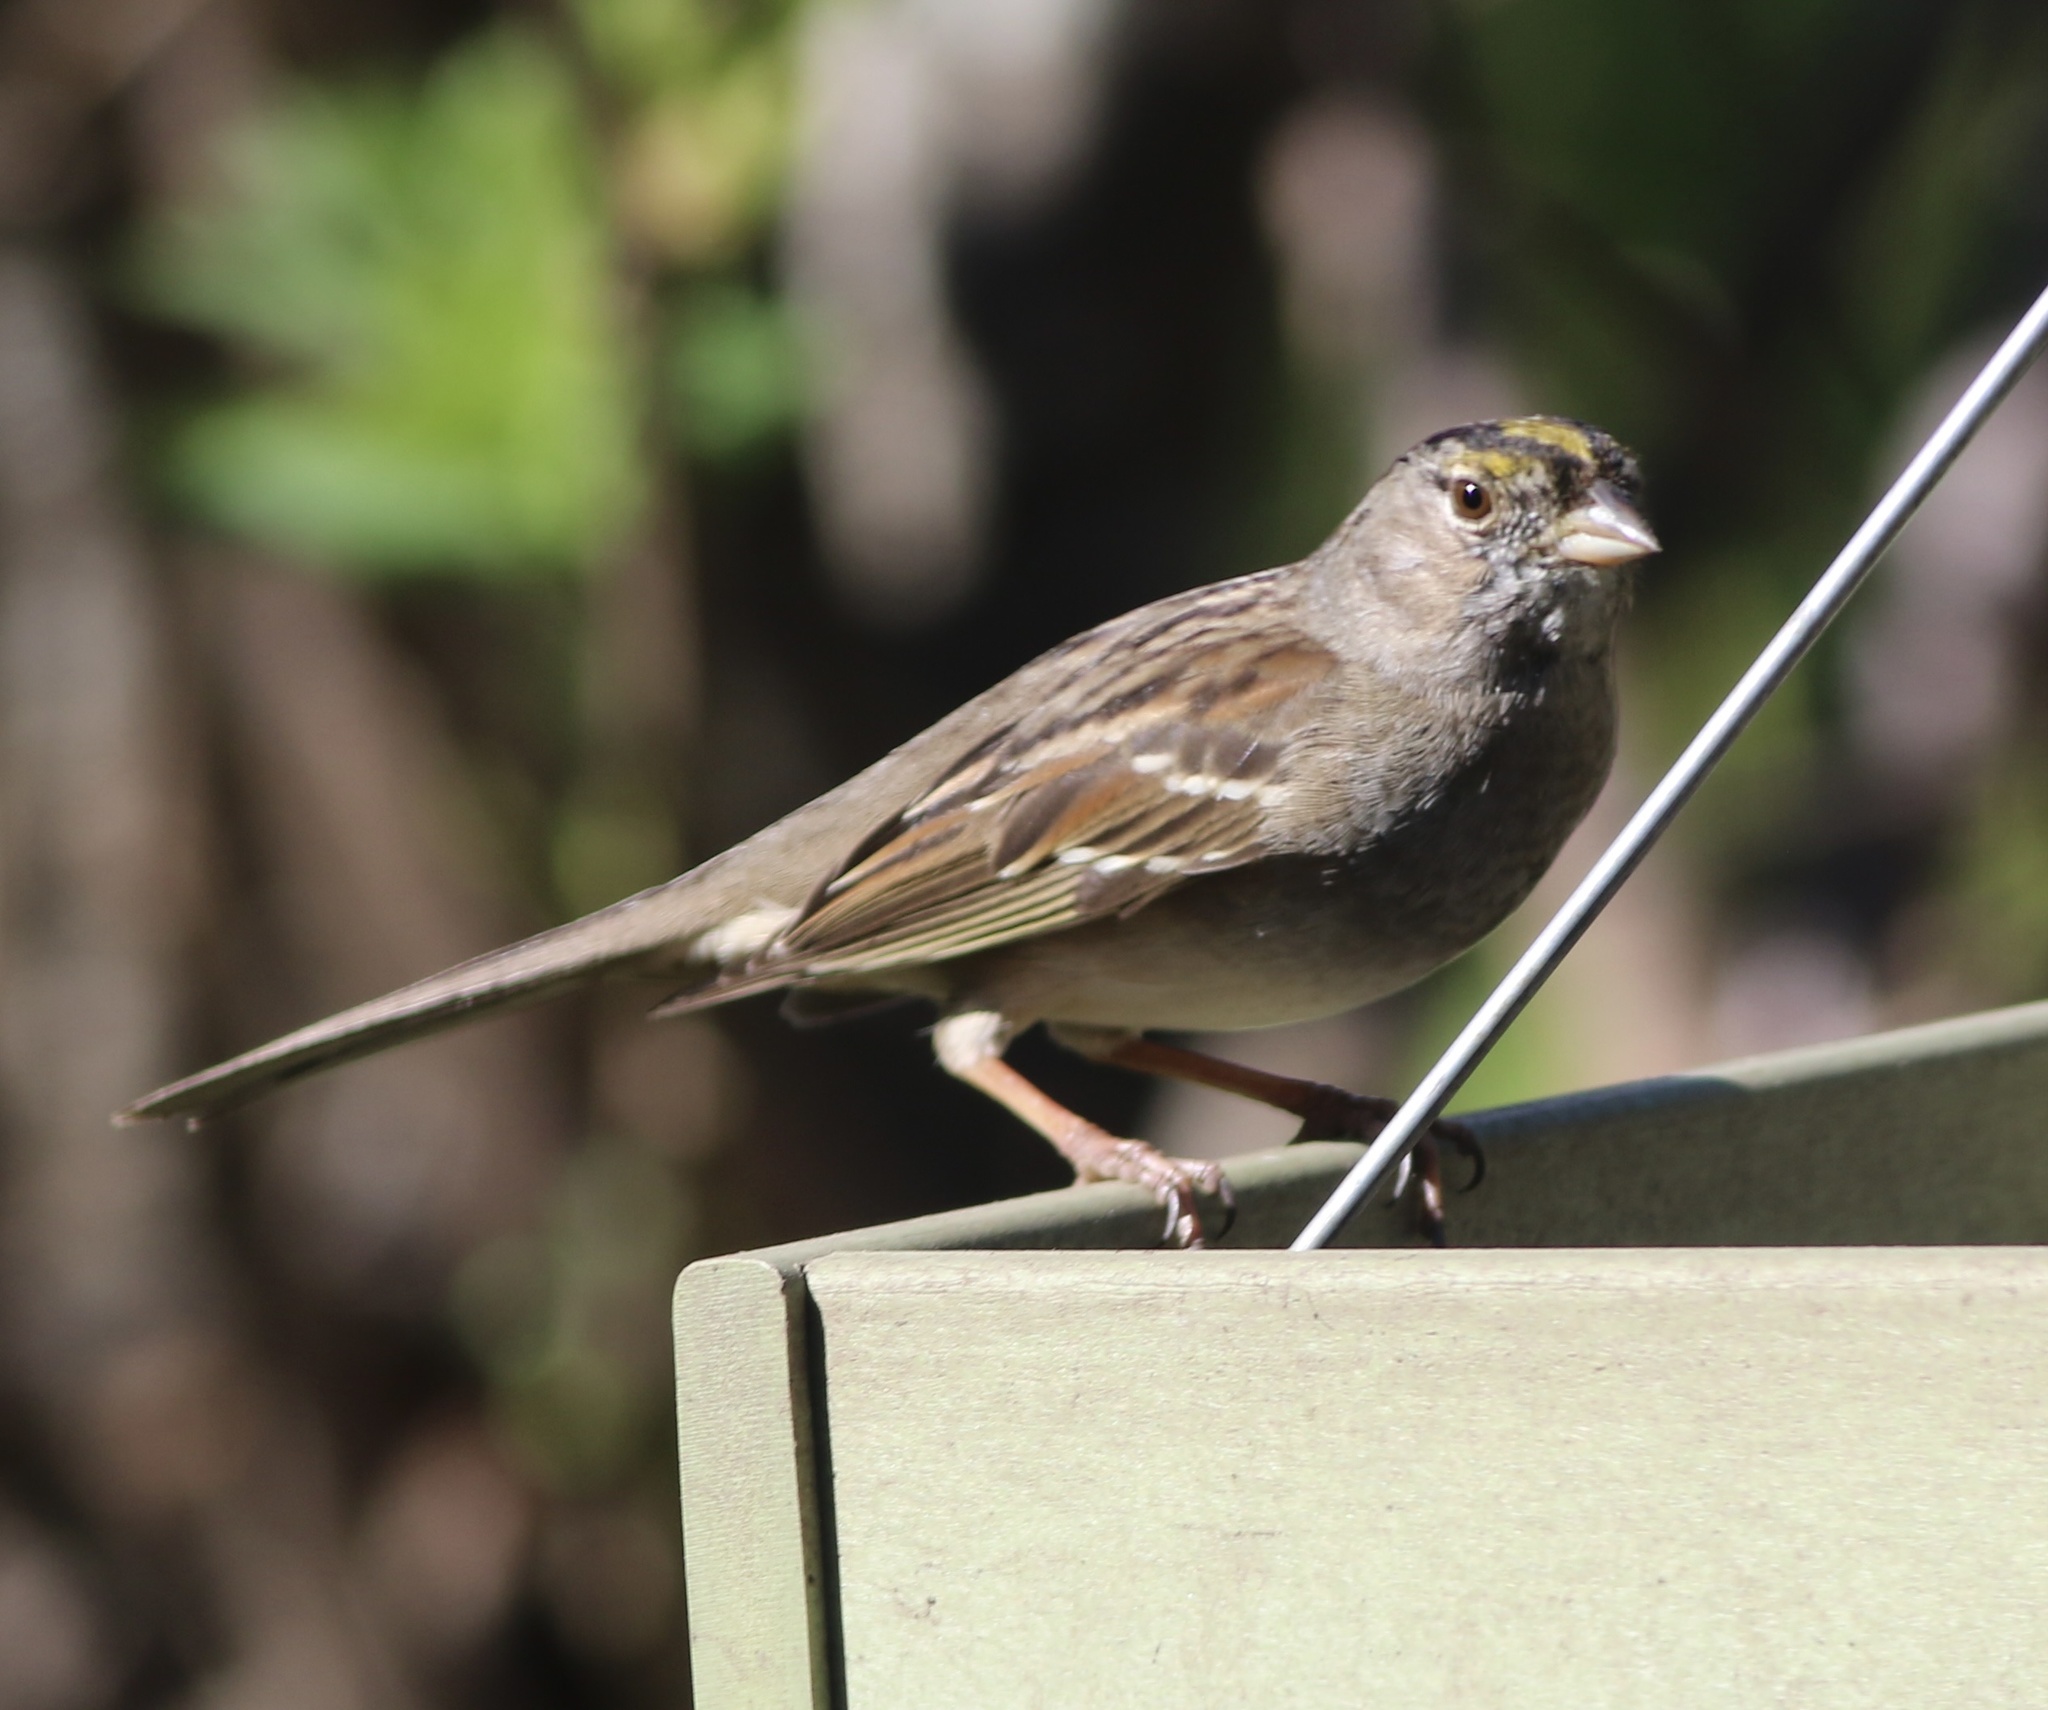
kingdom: Animalia
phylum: Chordata
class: Aves
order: Passeriformes
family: Passerellidae
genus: Zonotrichia
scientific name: Zonotrichia atricapilla
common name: Golden-crowned sparrow
